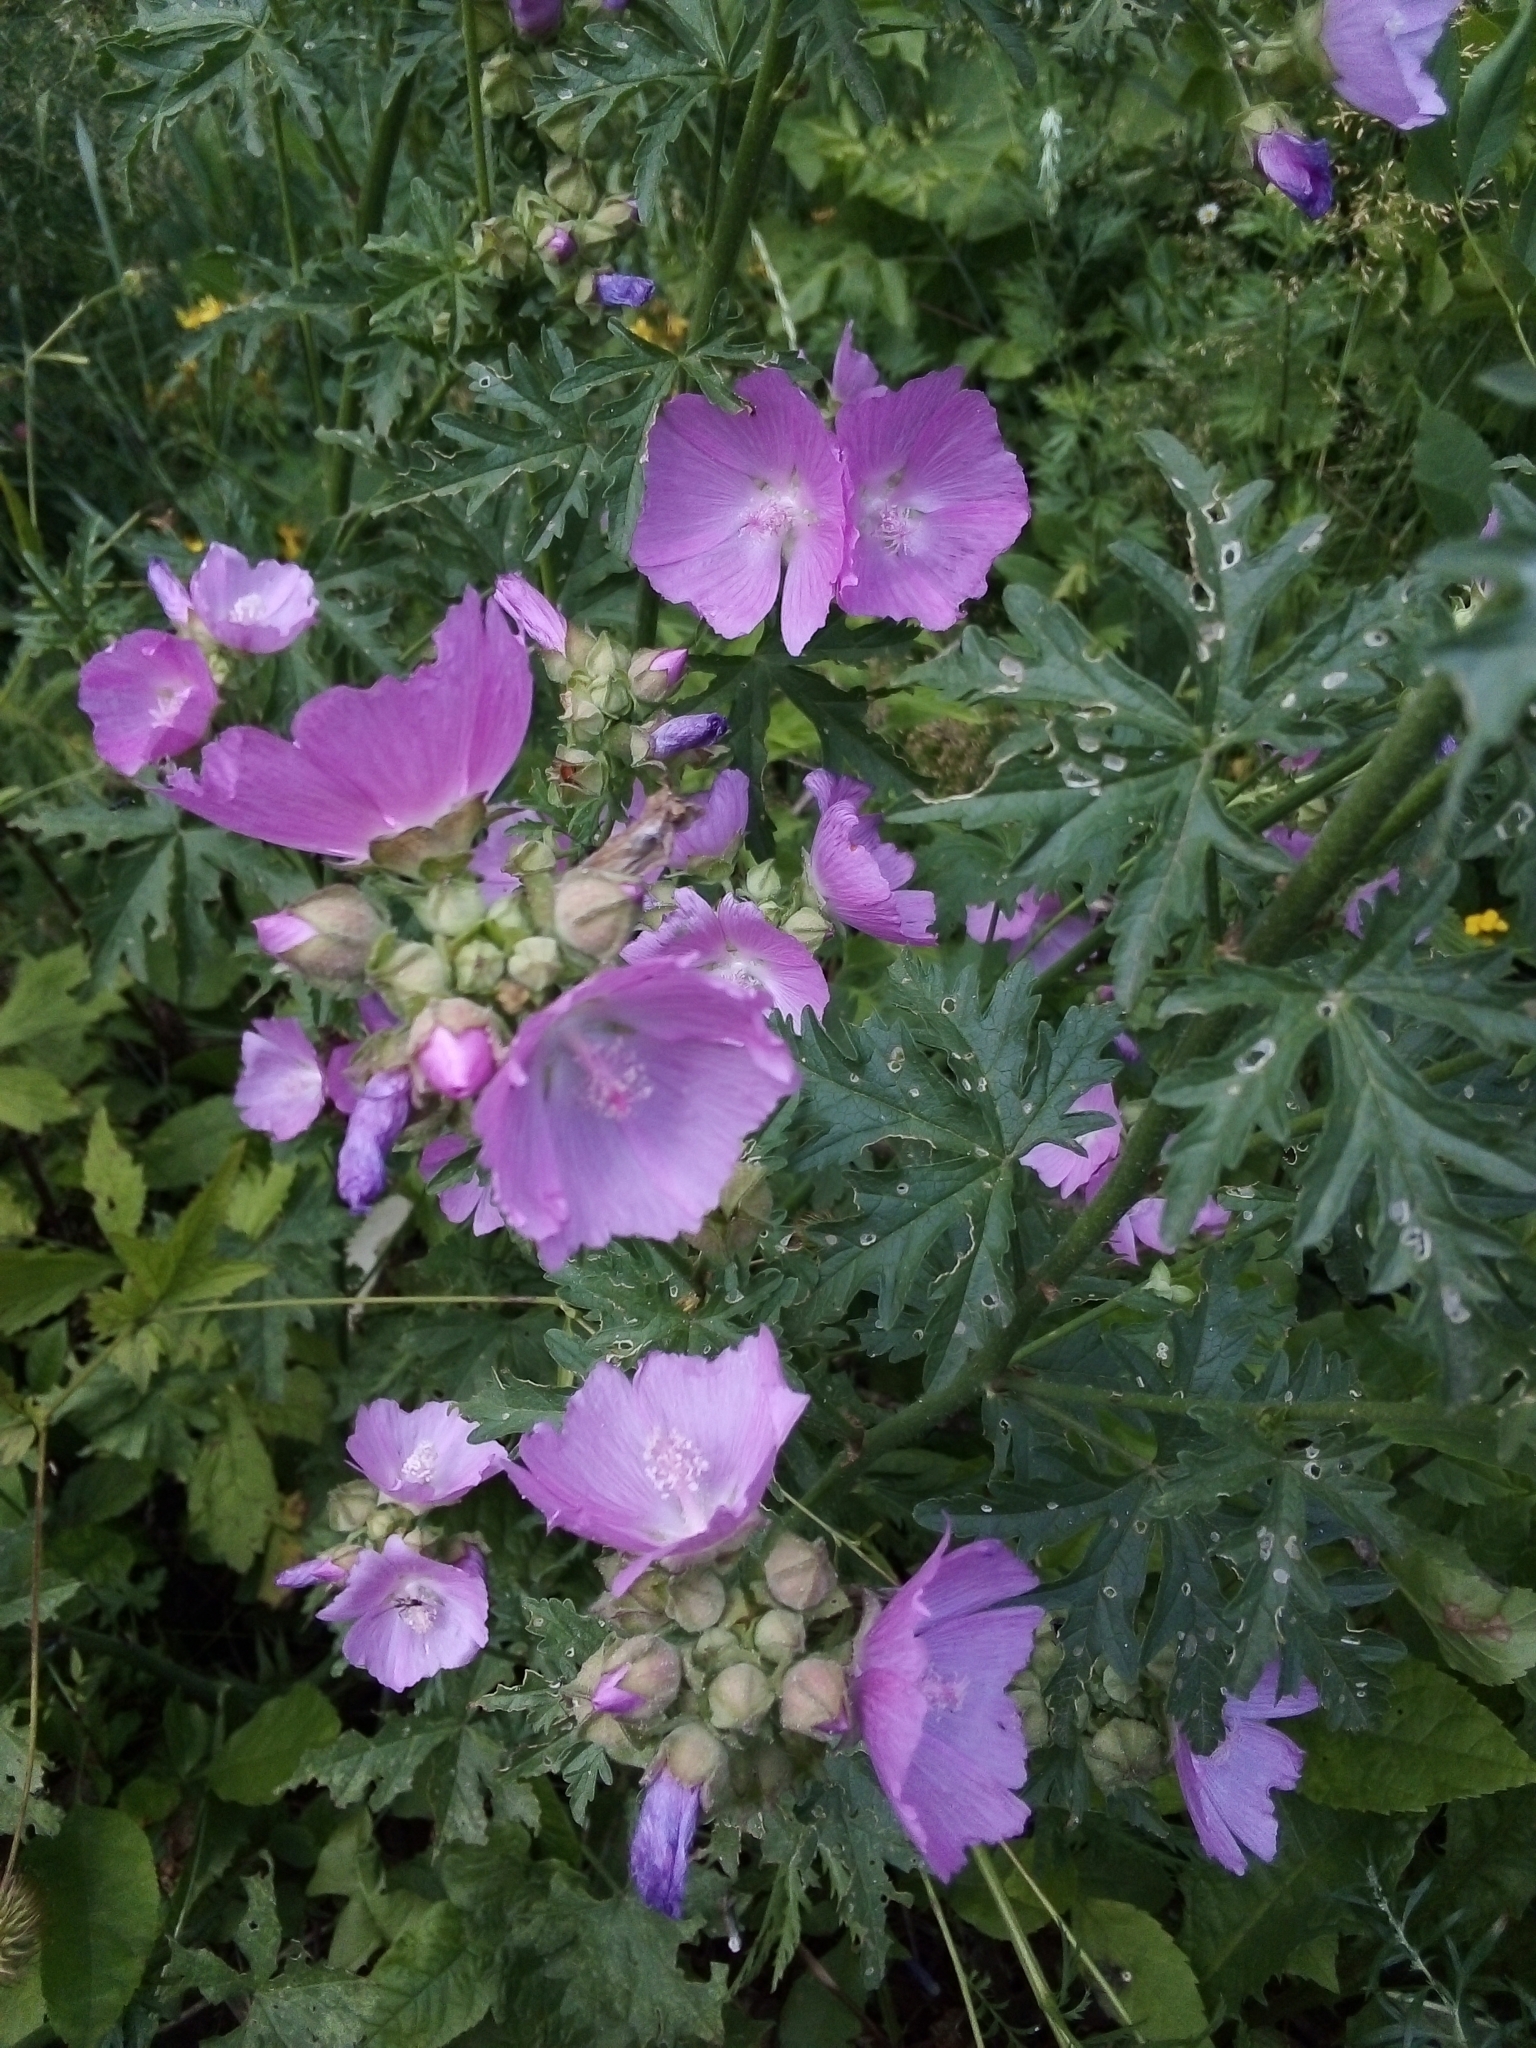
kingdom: Plantae
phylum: Tracheophyta
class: Magnoliopsida
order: Malvales
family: Malvaceae
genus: Malva
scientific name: Malva moschata
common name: Musk mallow
